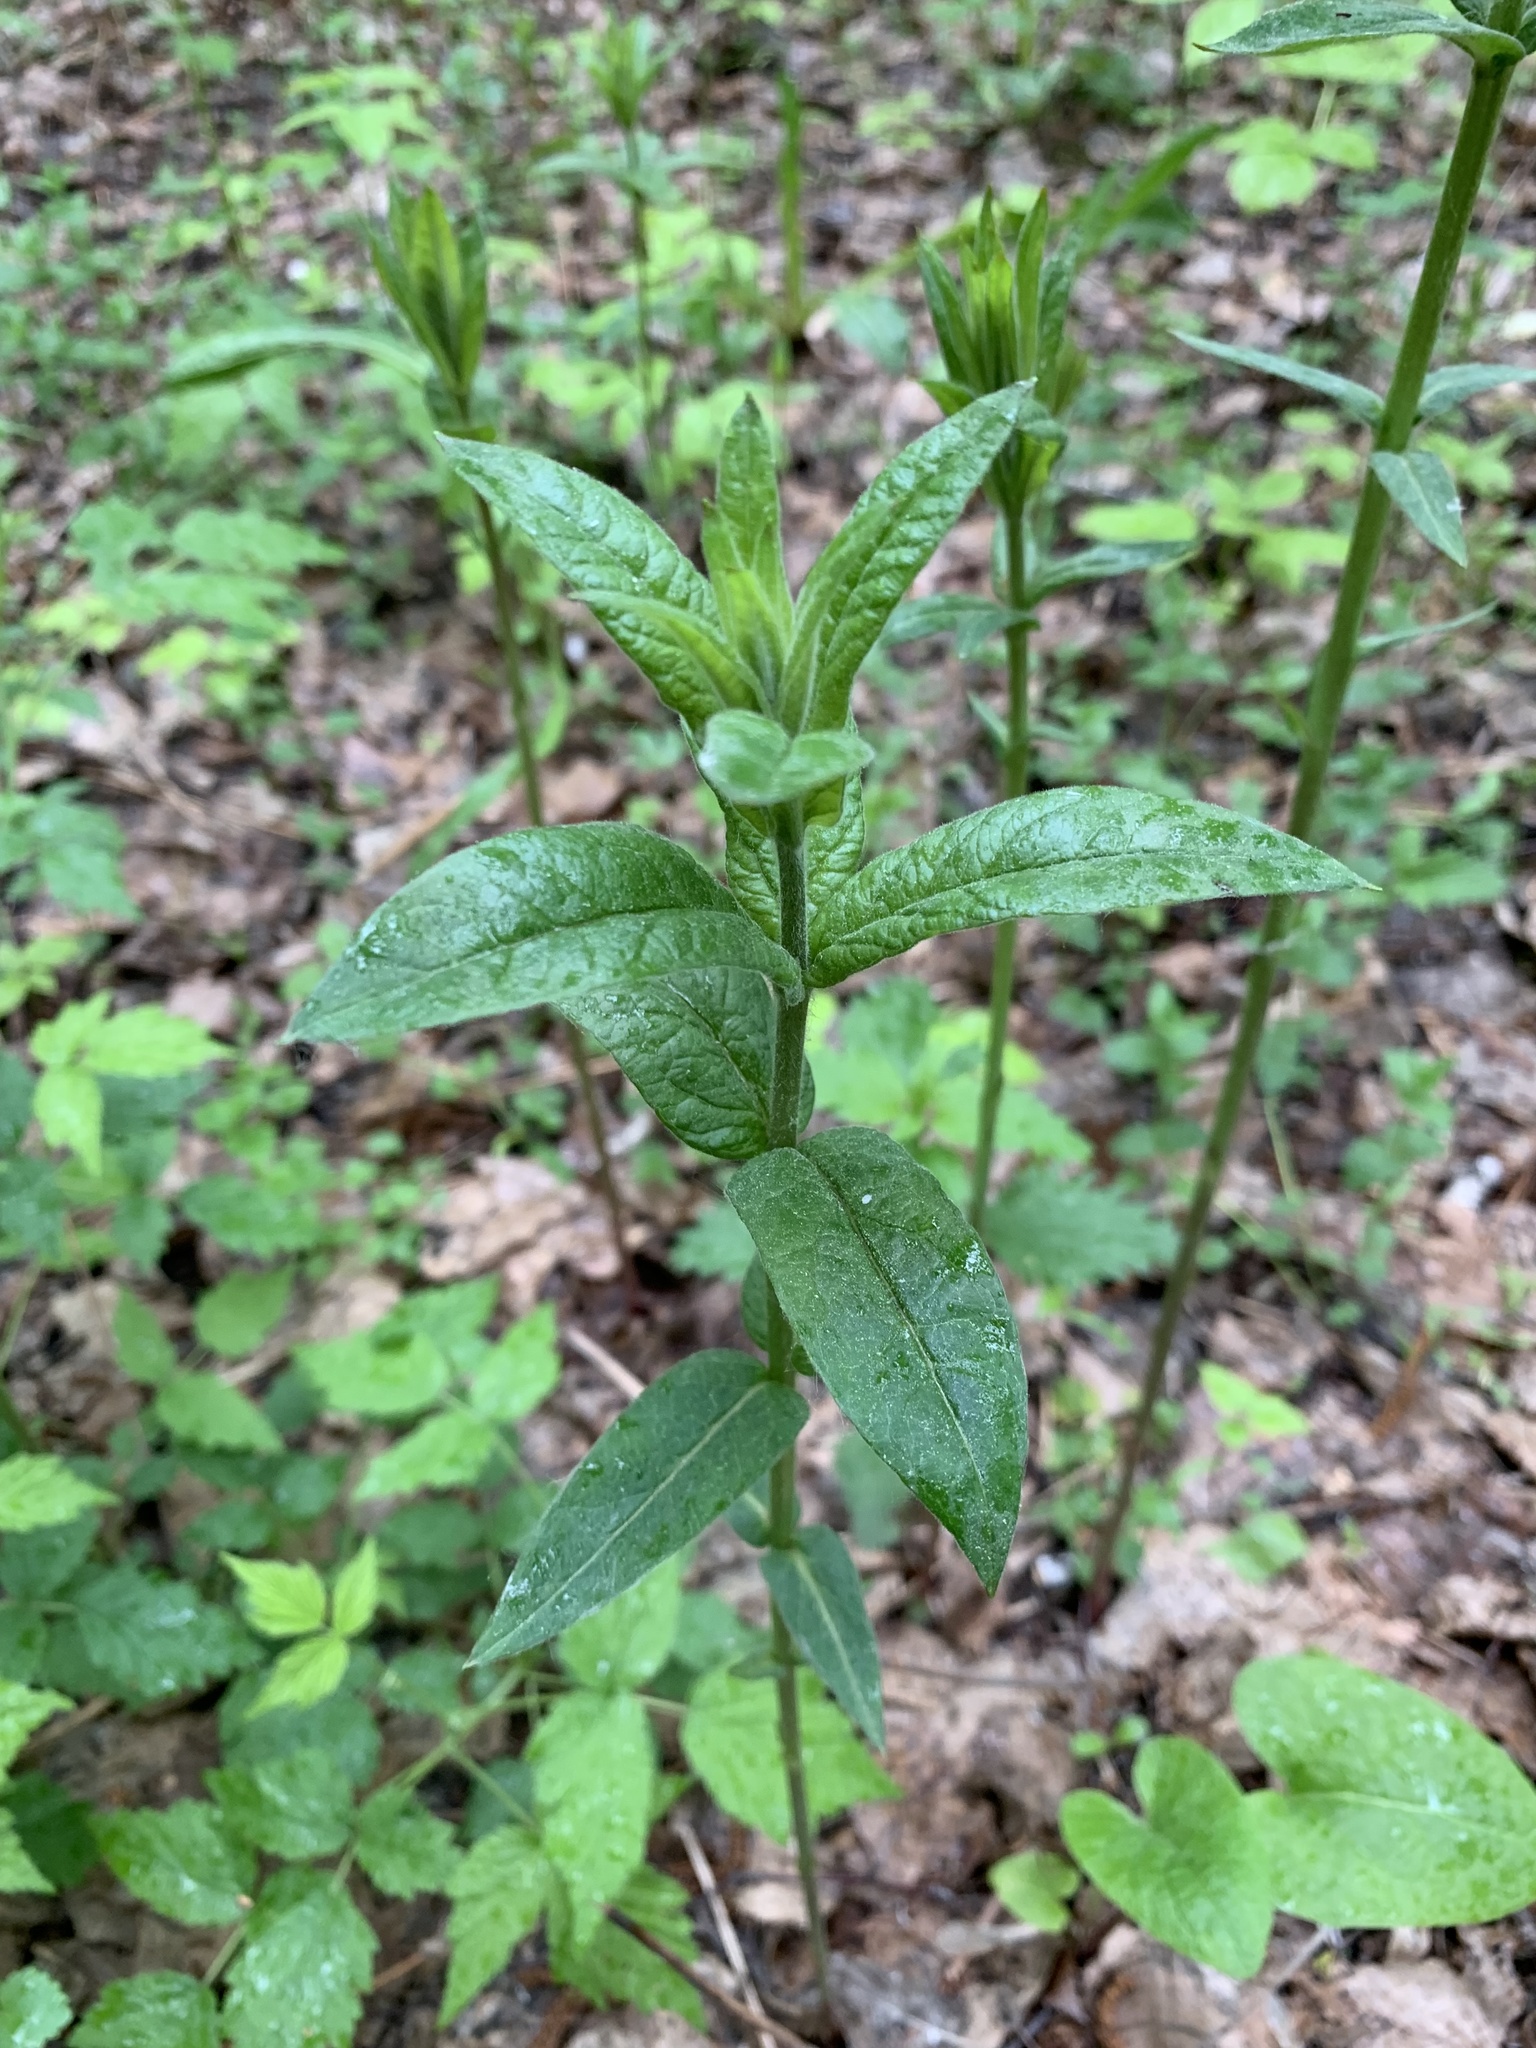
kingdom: Plantae
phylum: Tracheophyta
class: Magnoliopsida
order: Ericales
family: Primulaceae
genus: Lysimachia
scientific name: Lysimachia vulgaris
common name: Yellow loosestrife
